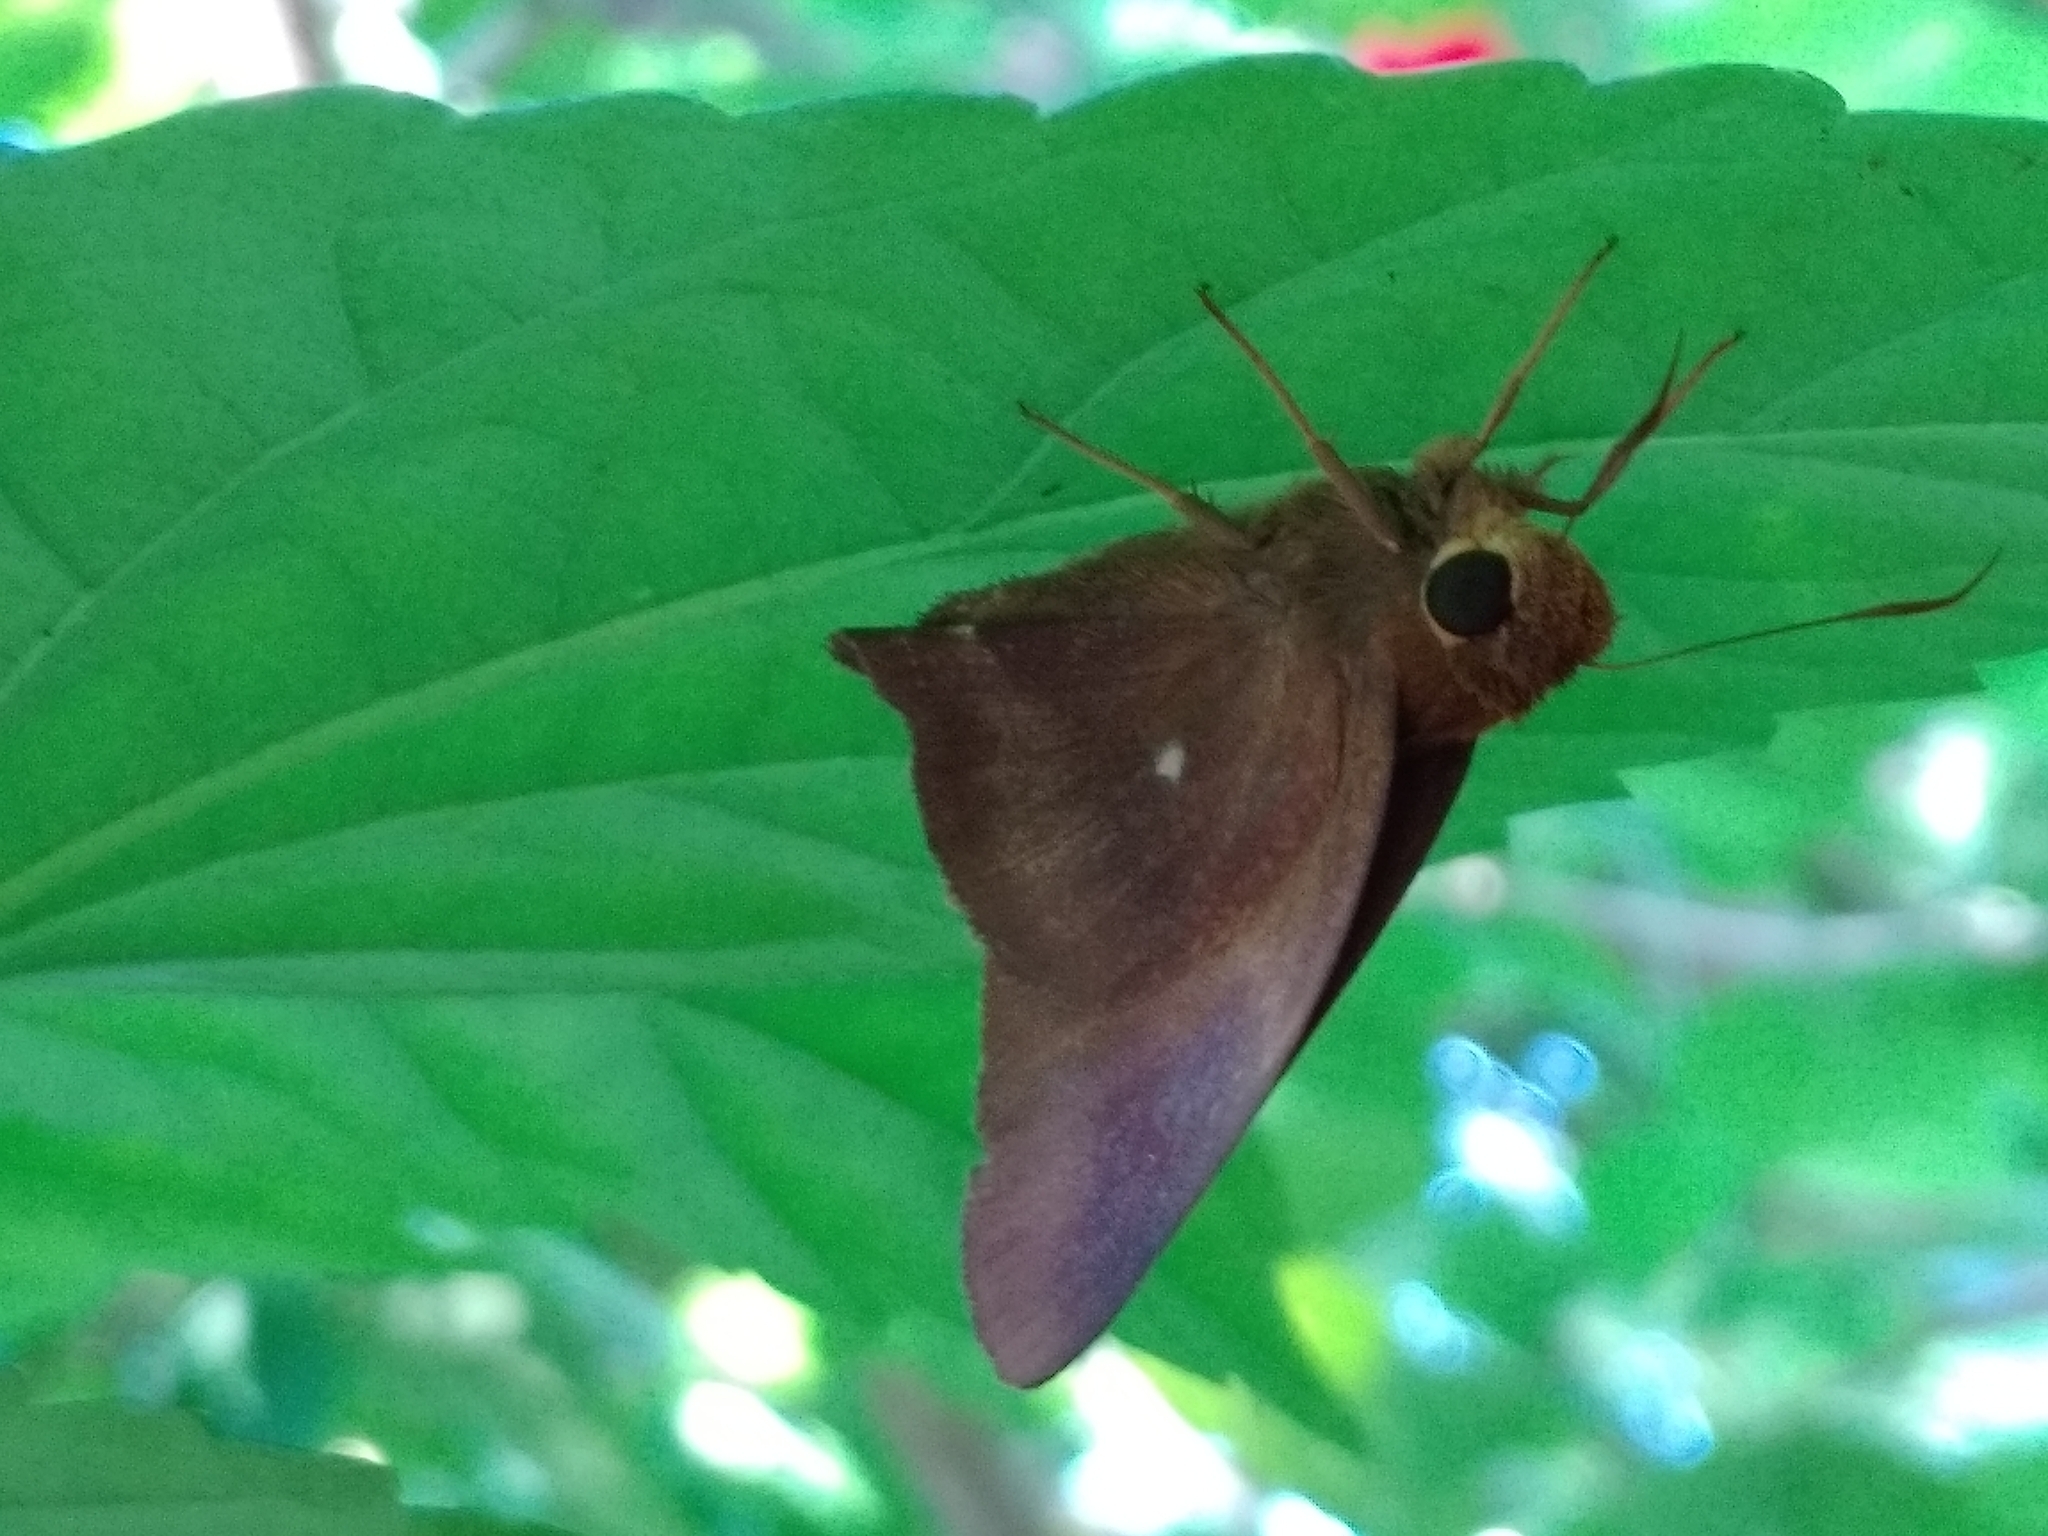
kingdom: Animalia
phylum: Arthropoda
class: Insecta
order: Lepidoptera
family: Hesperiidae
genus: Hasora
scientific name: Hasora badra
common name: Common awl
